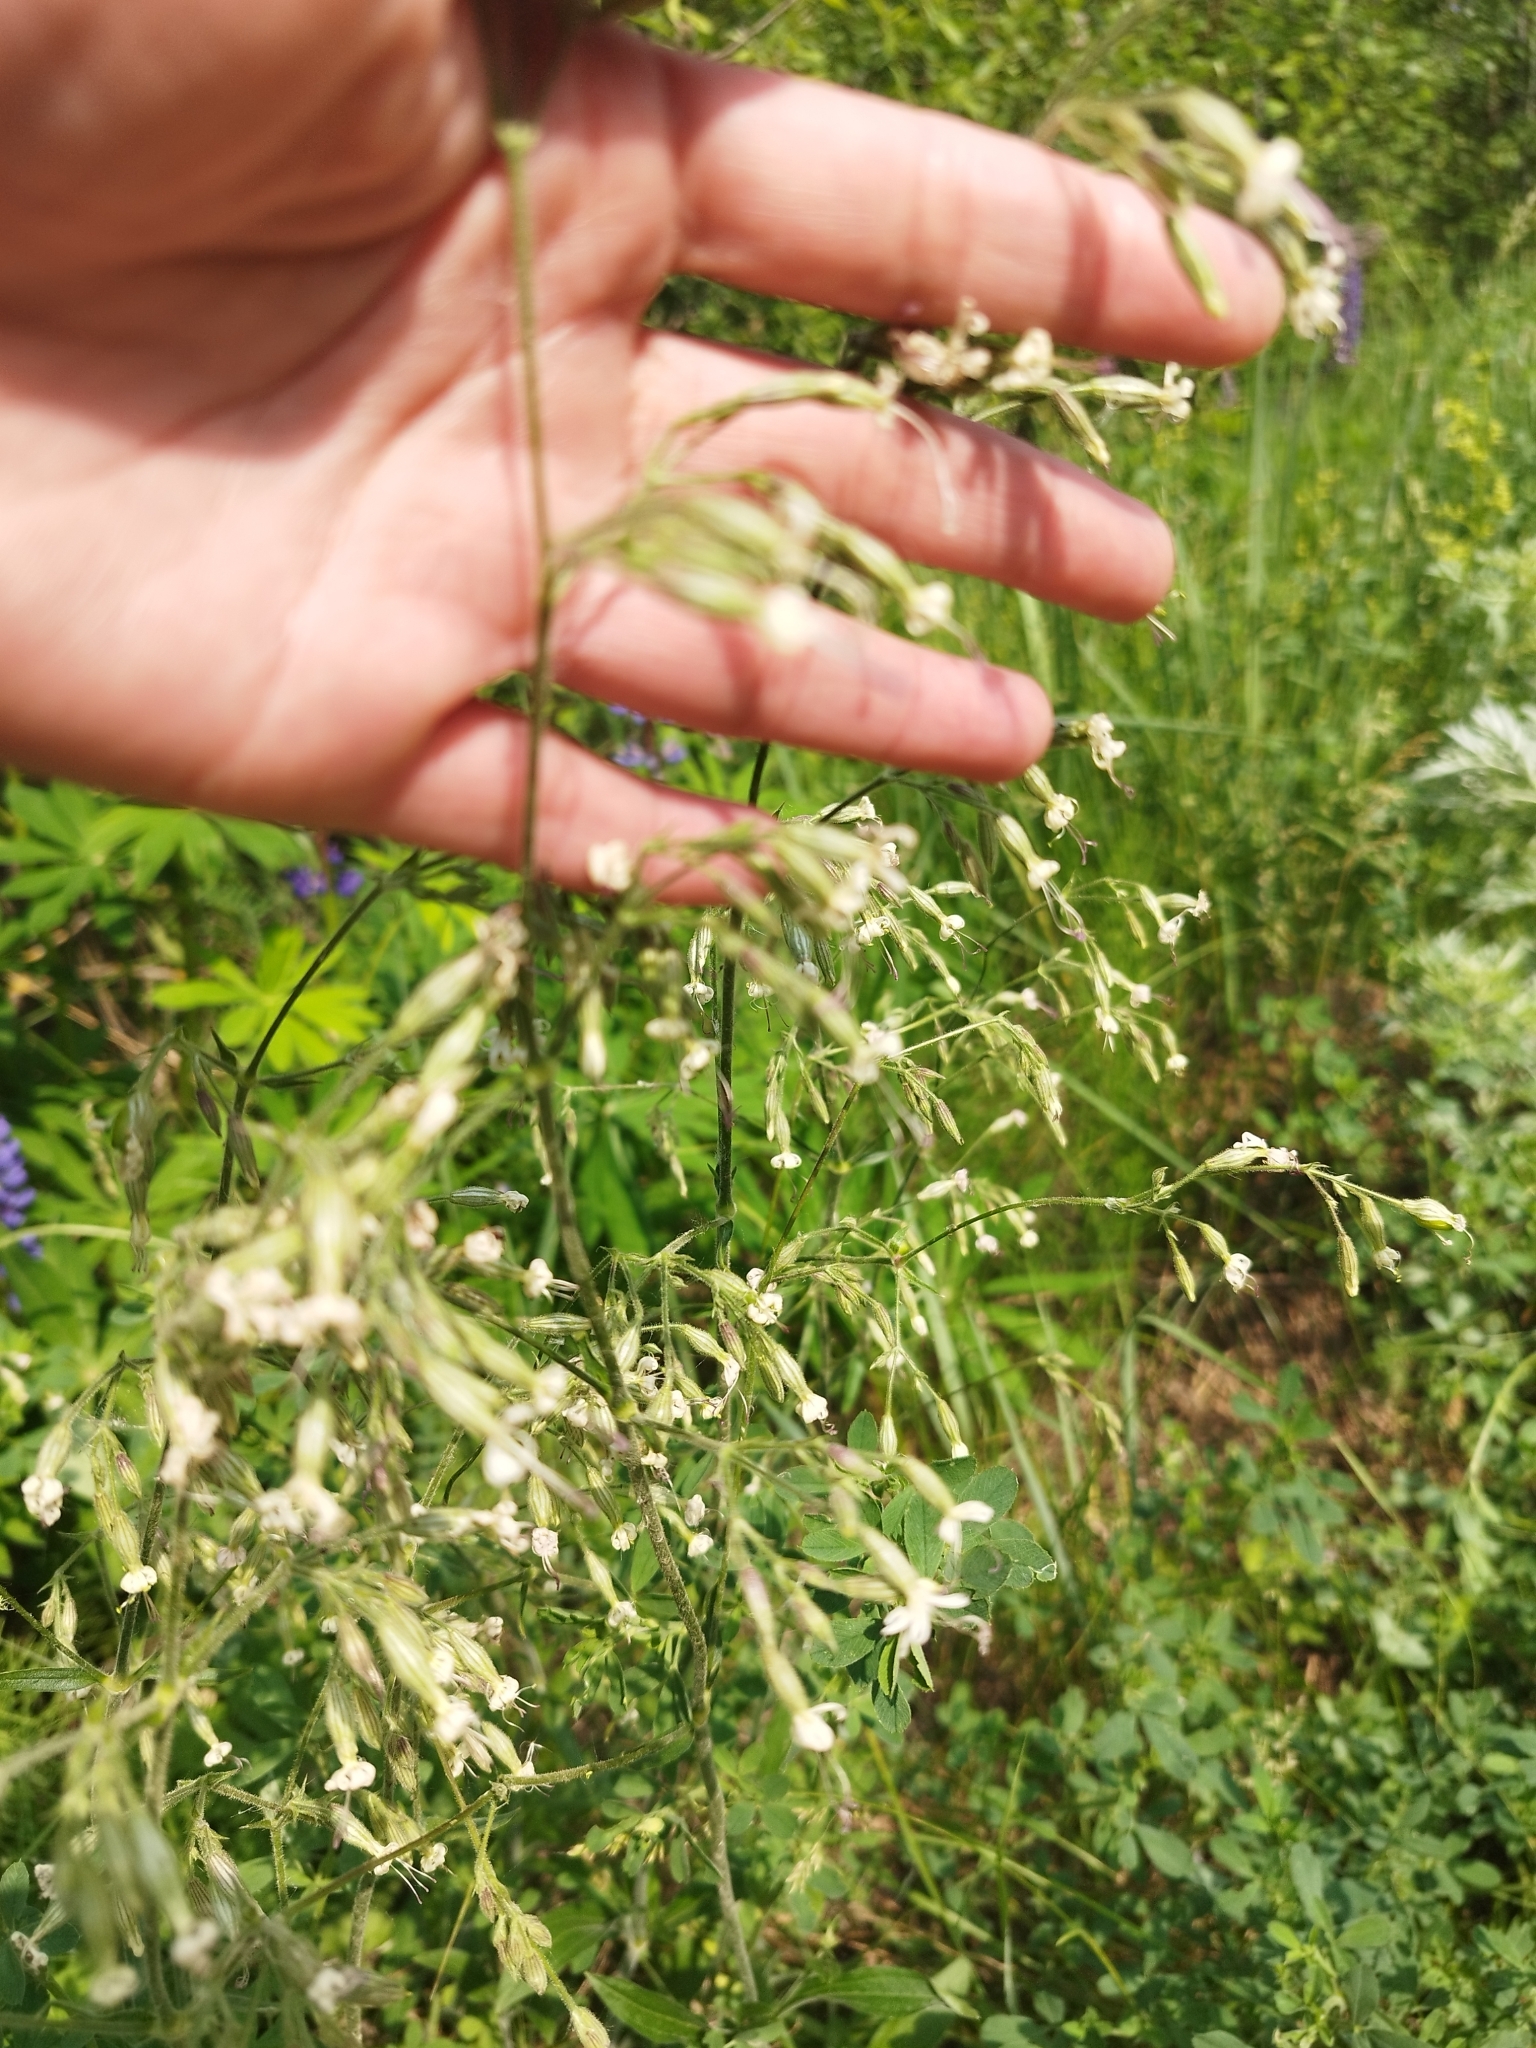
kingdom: Plantae
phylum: Tracheophyta
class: Magnoliopsida
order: Caryophyllales
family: Caryophyllaceae
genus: Silene
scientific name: Silene nutans
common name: Nottingham catchfly
